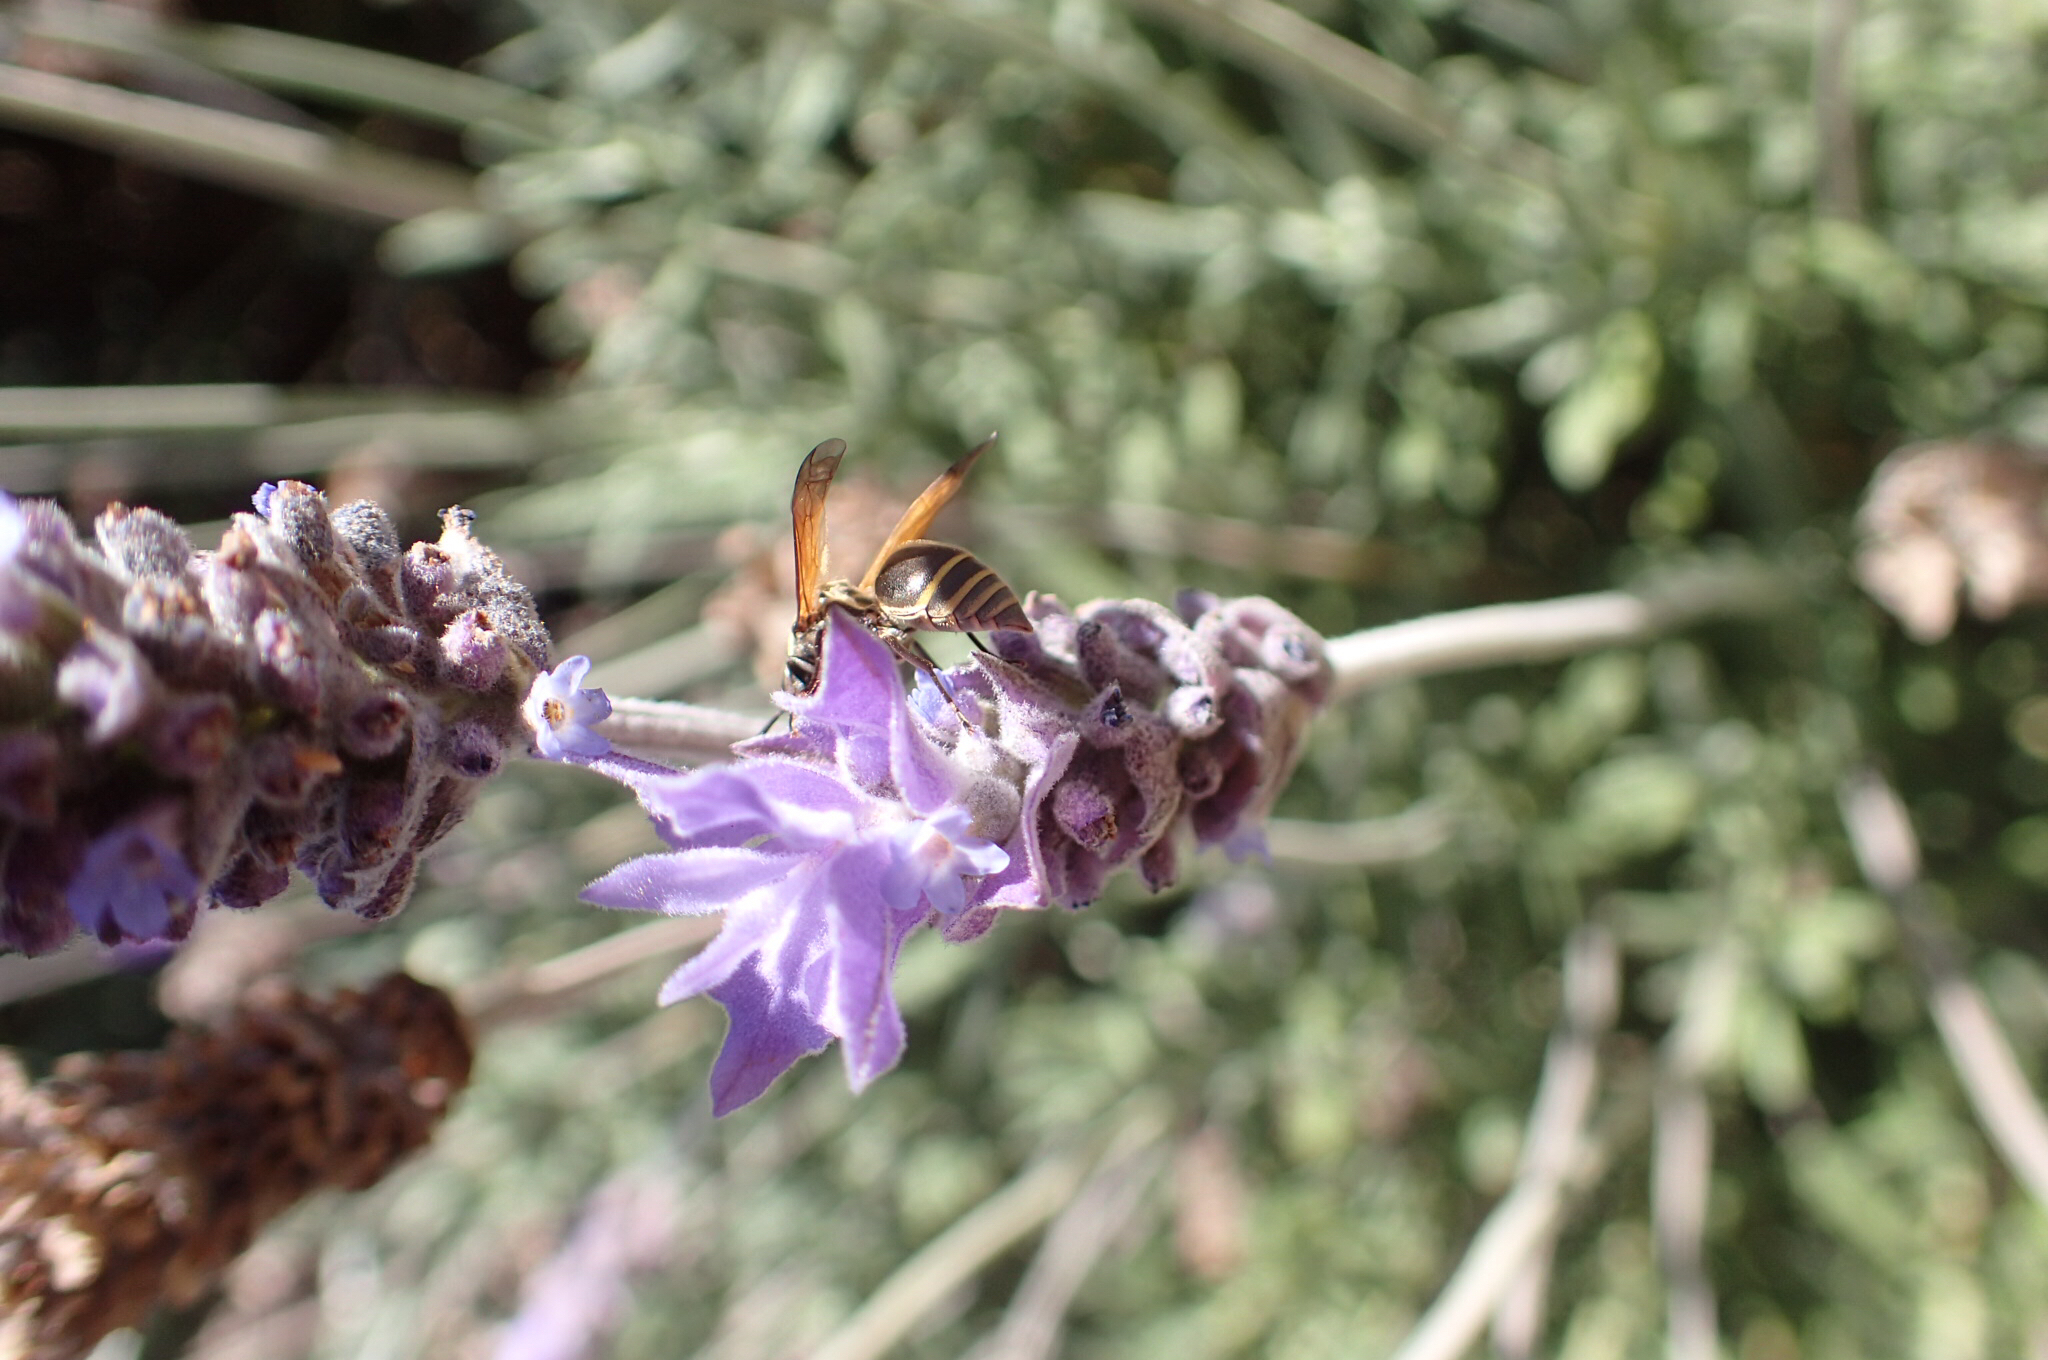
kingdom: Animalia
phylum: Arthropoda
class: Insecta
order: Hymenoptera
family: Vespidae
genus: Brachygastra
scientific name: Brachygastra mellifica
